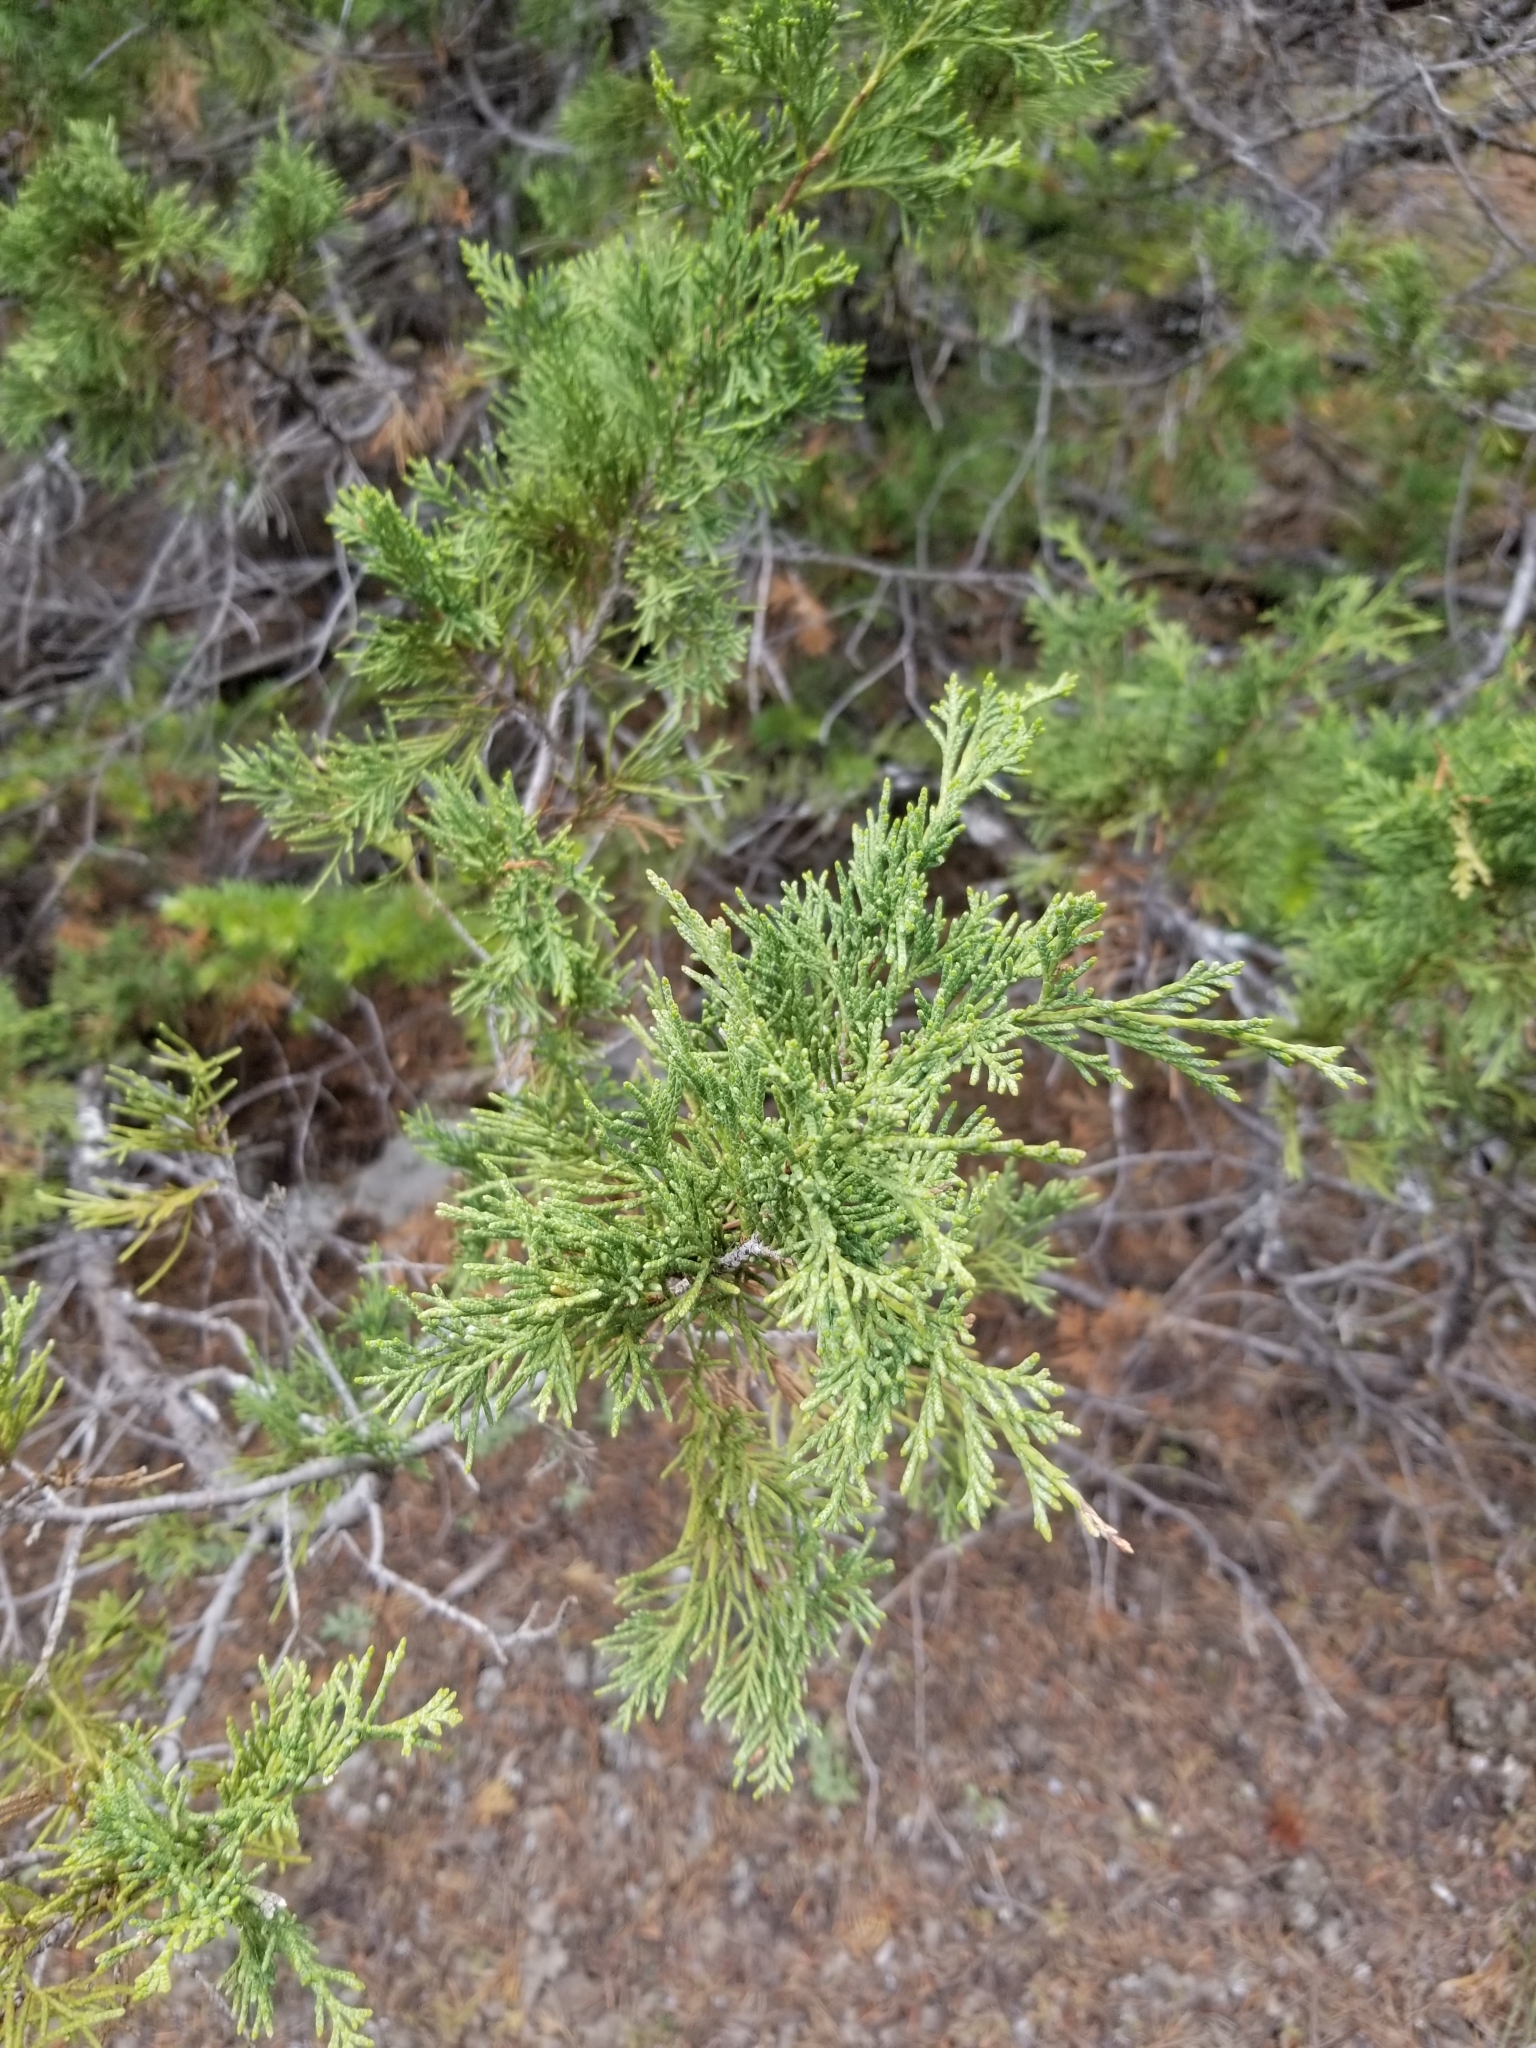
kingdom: Plantae
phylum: Tracheophyta
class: Pinopsida
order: Pinales
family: Cupressaceae
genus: Juniperus
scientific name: Juniperus scopulorum
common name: Rocky mountain juniper
